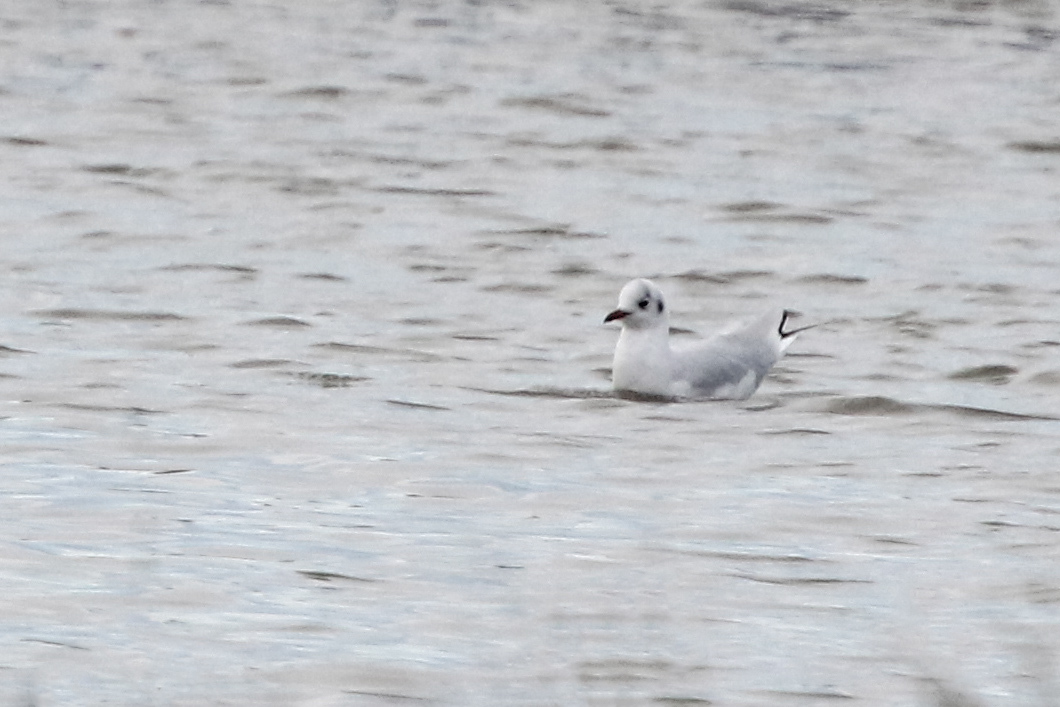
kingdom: Animalia
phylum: Chordata
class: Aves
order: Charadriiformes
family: Laridae
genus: Chroicocephalus
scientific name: Chroicocephalus ridibundus
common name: Black-headed gull
